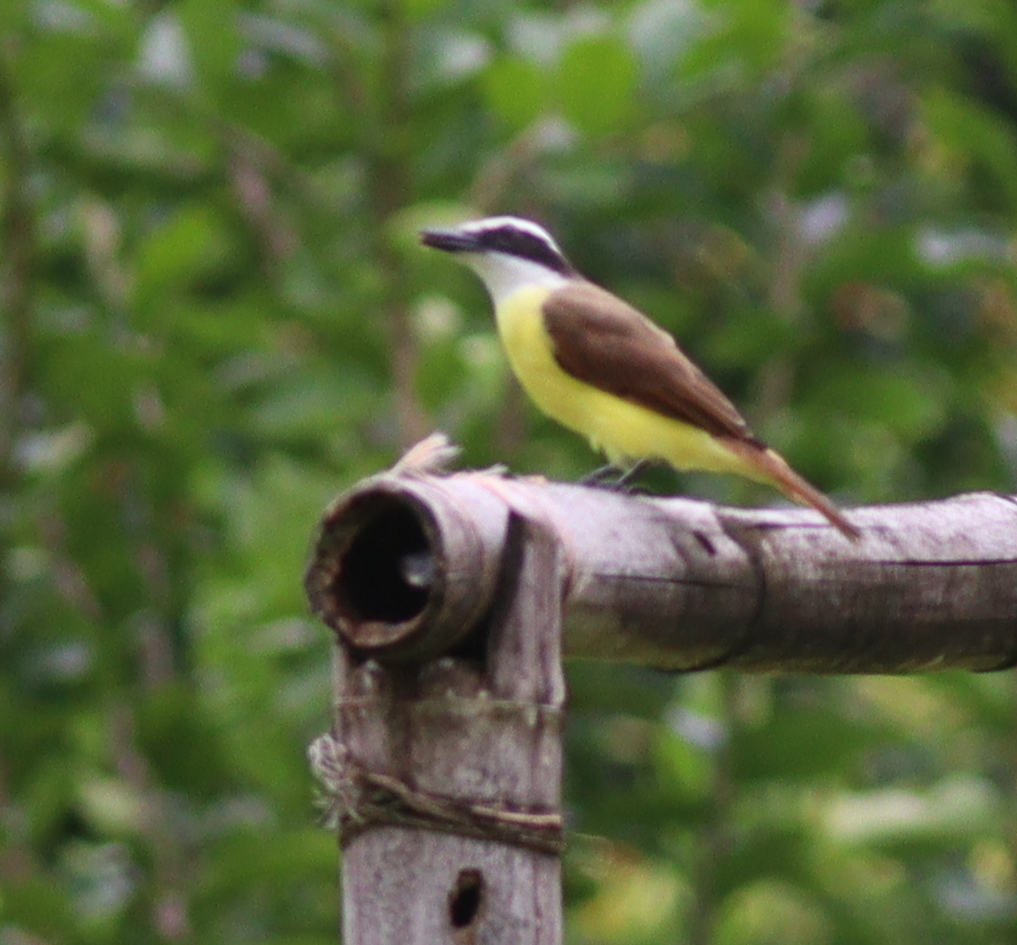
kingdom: Animalia
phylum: Chordata
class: Aves
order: Passeriformes
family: Tyrannidae
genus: Pitangus
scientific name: Pitangus sulphuratus
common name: Great kiskadee
